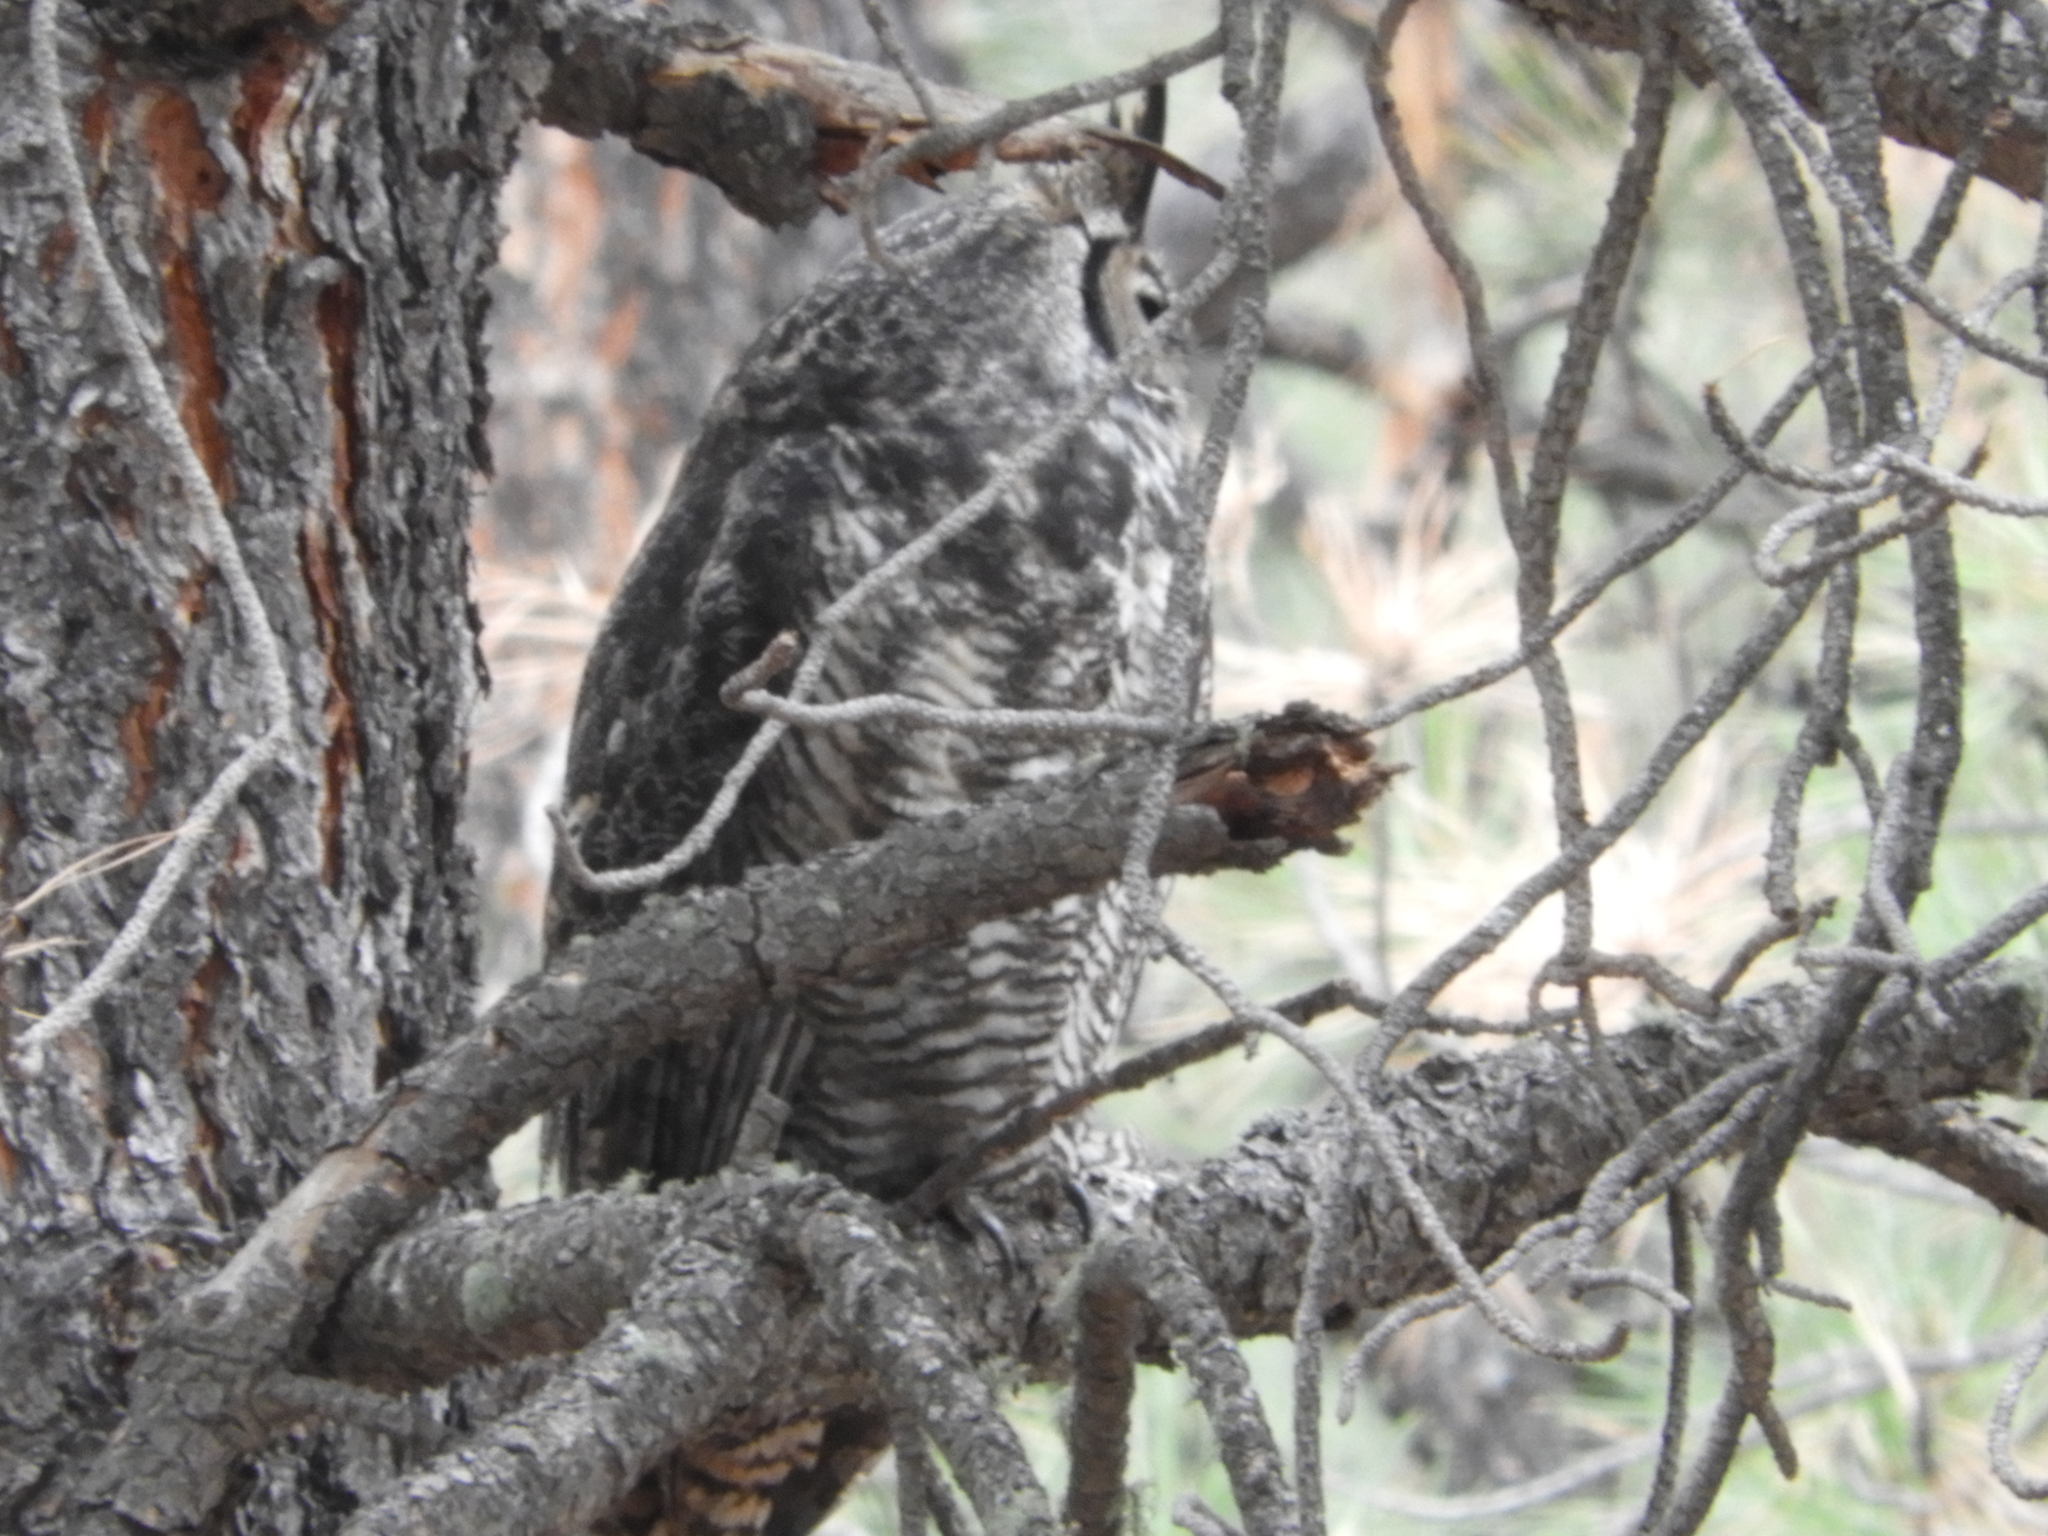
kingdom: Animalia
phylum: Chordata
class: Aves
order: Strigiformes
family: Strigidae
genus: Bubo
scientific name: Bubo virginianus
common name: Great horned owl
